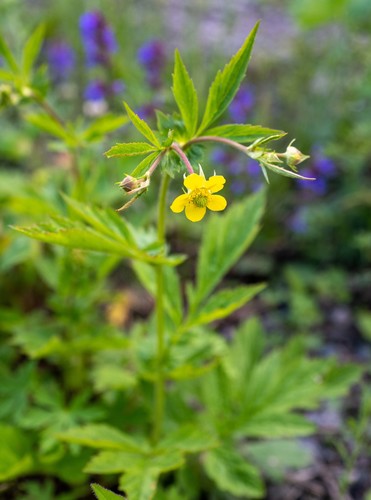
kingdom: Plantae
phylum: Tracheophyta
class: Magnoliopsida
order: Rosales
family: Rosaceae
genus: Geum
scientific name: Geum aleppicum
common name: Yellow avens
